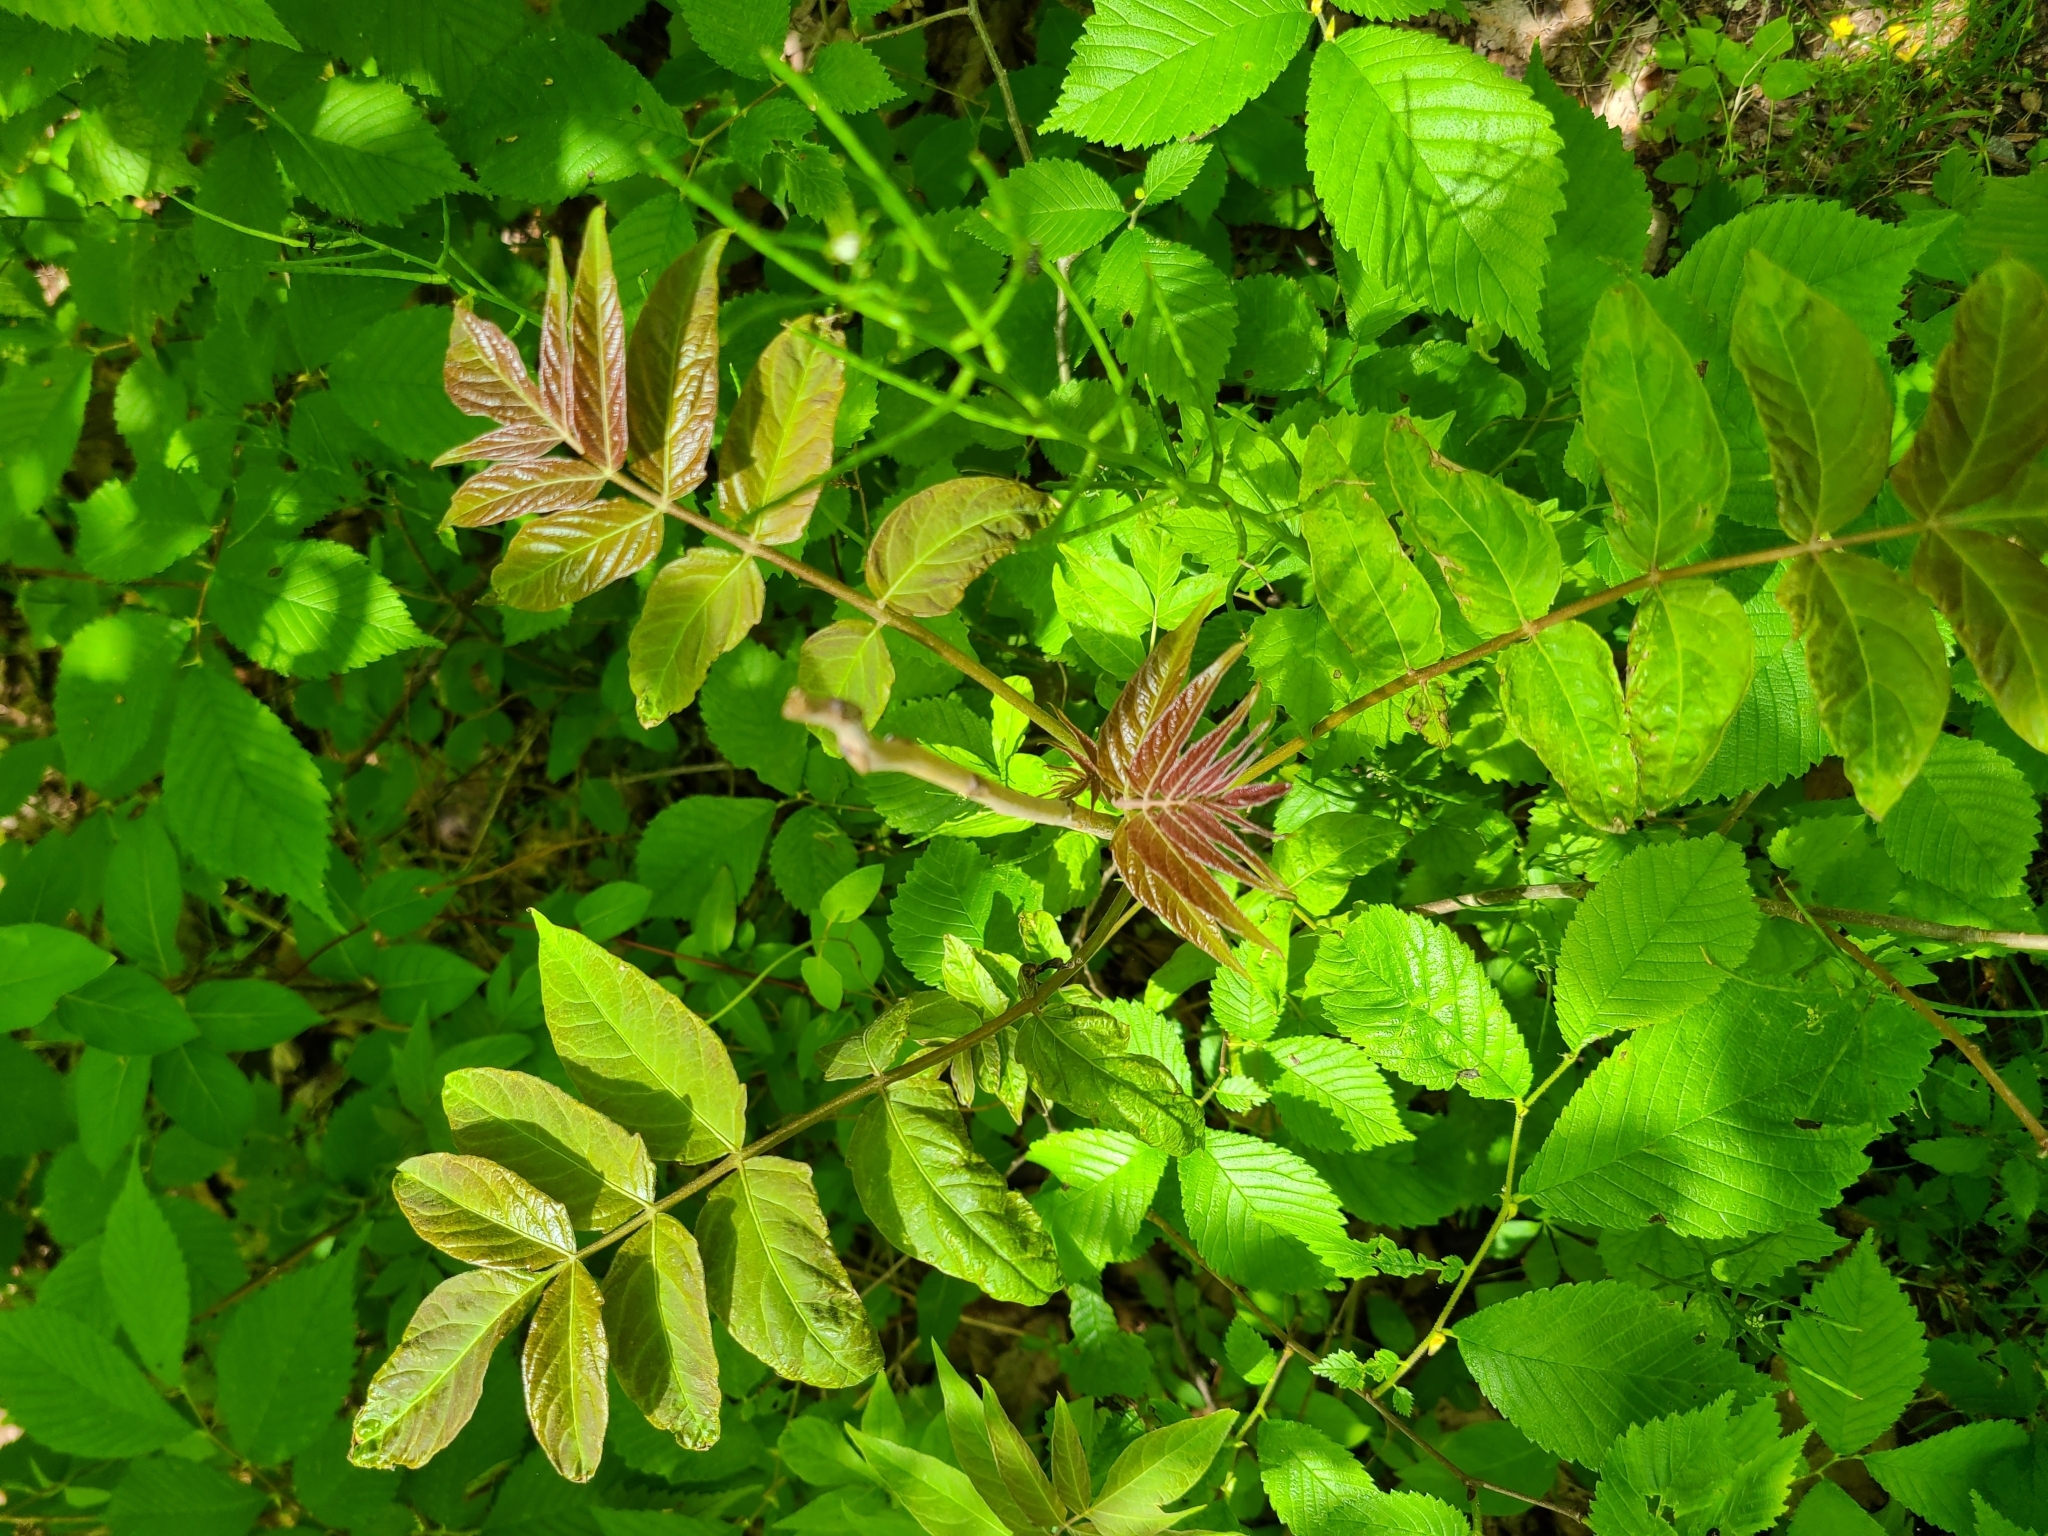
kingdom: Plantae
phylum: Tracheophyta
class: Magnoliopsida
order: Sapindales
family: Simaroubaceae
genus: Ailanthus
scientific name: Ailanthus altissima
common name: Tree-of-heaven
